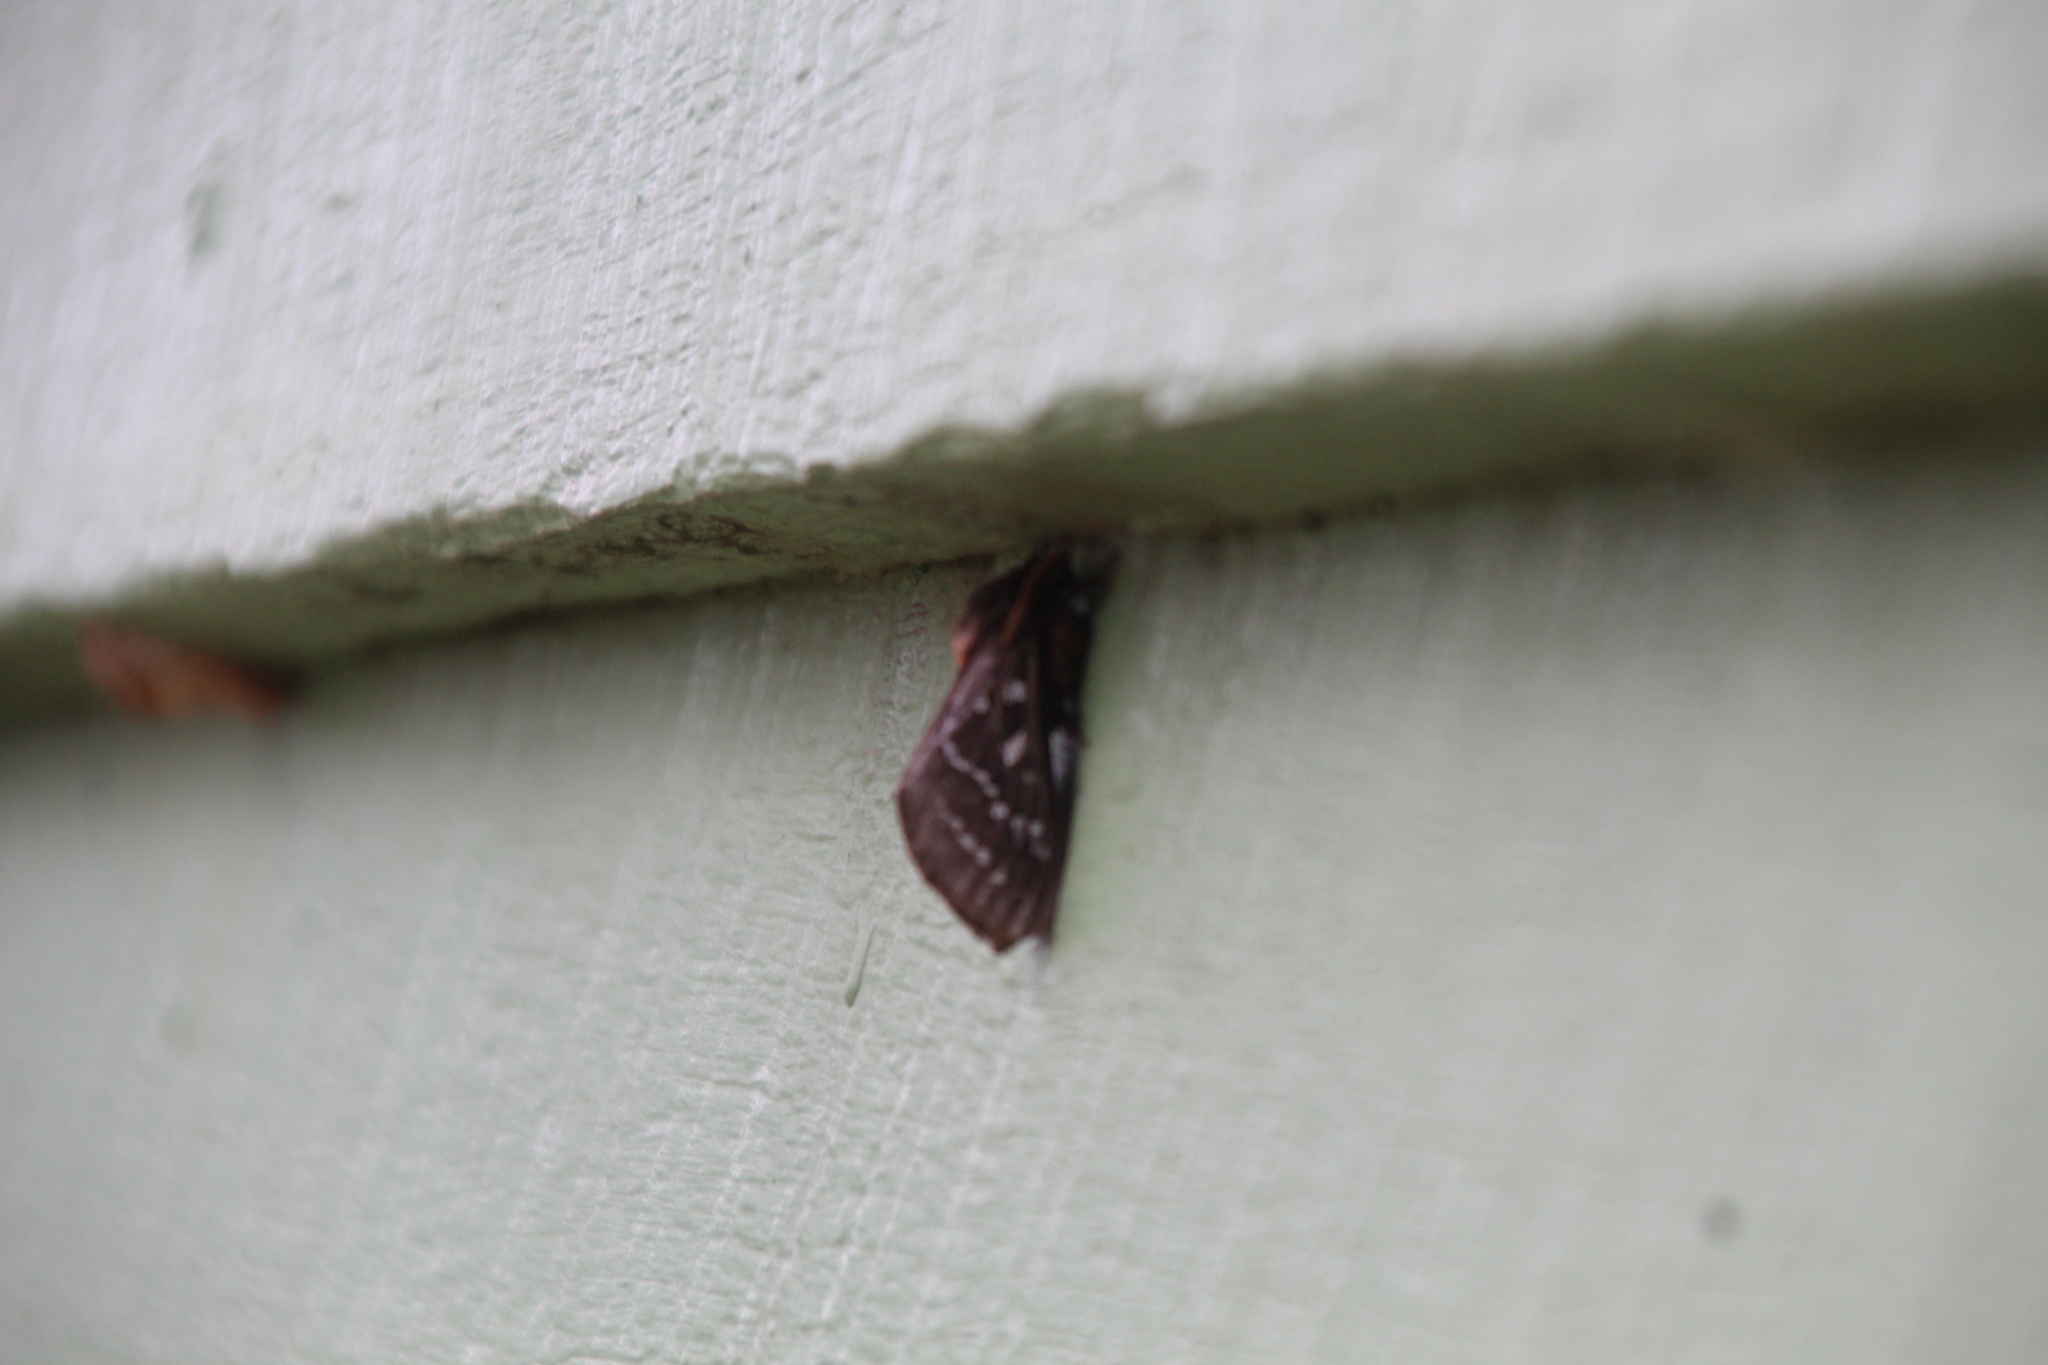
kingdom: Animalia
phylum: Arthropoda
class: Insecta
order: Lepidoptera
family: Hepialidae
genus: Oxycanus
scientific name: Oxycanus perditus
